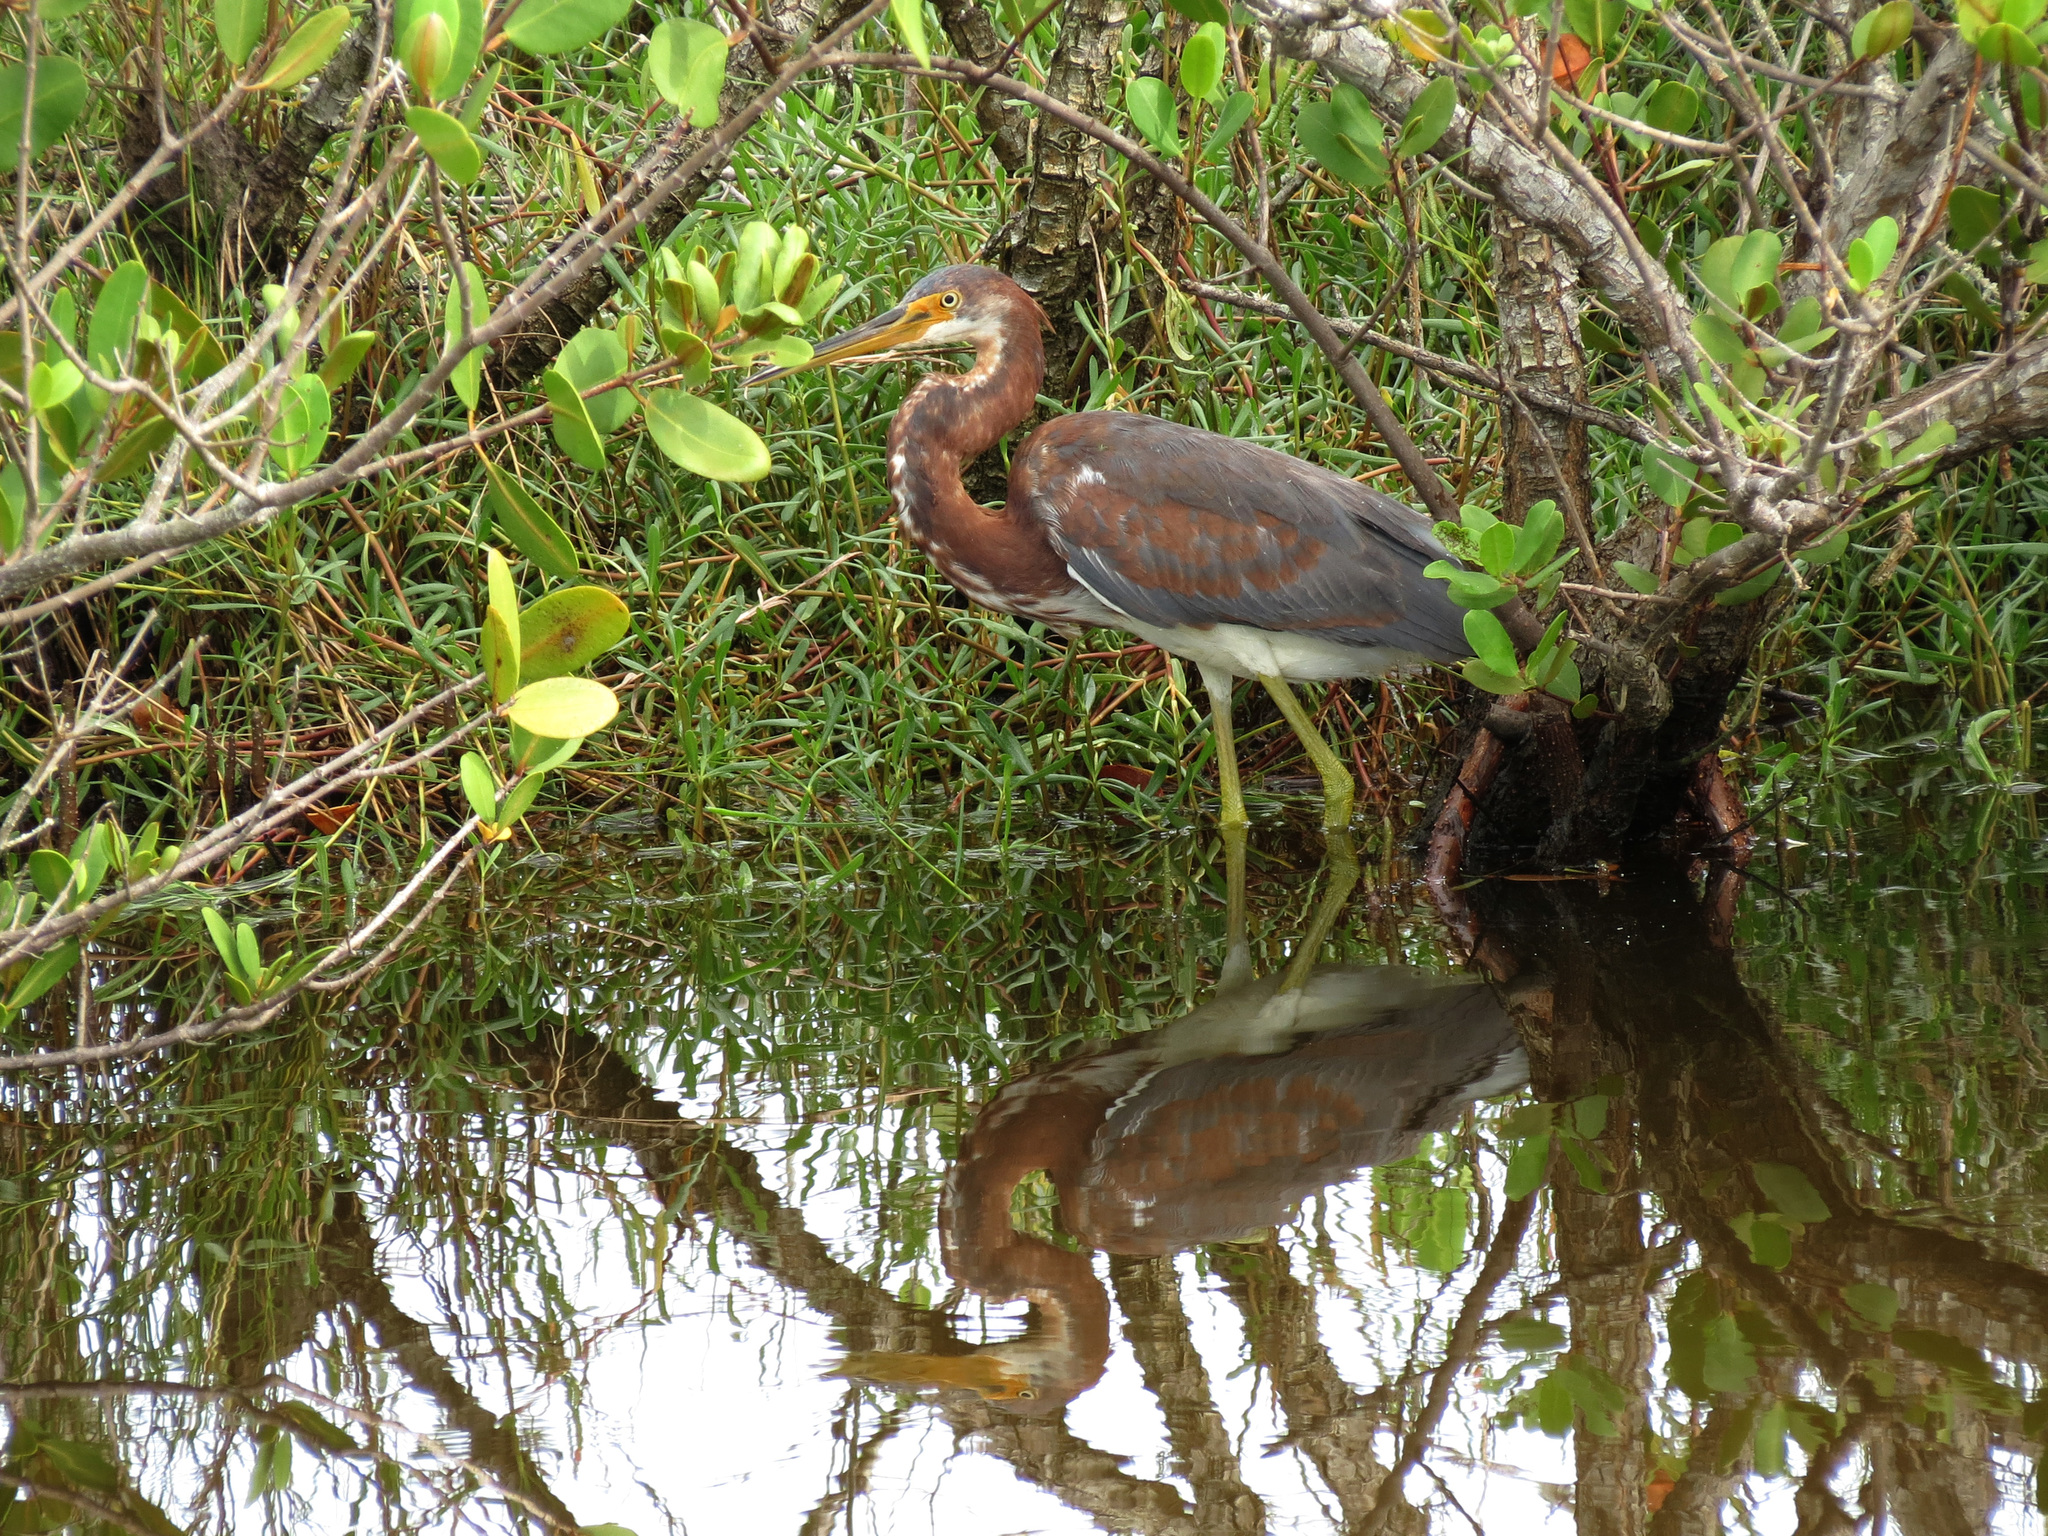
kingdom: Animalia
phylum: Chordata
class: Aves
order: Pelecaniformes
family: Ardeidae
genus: Egretta
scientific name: Egretta tricolor
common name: Tricolored heron
